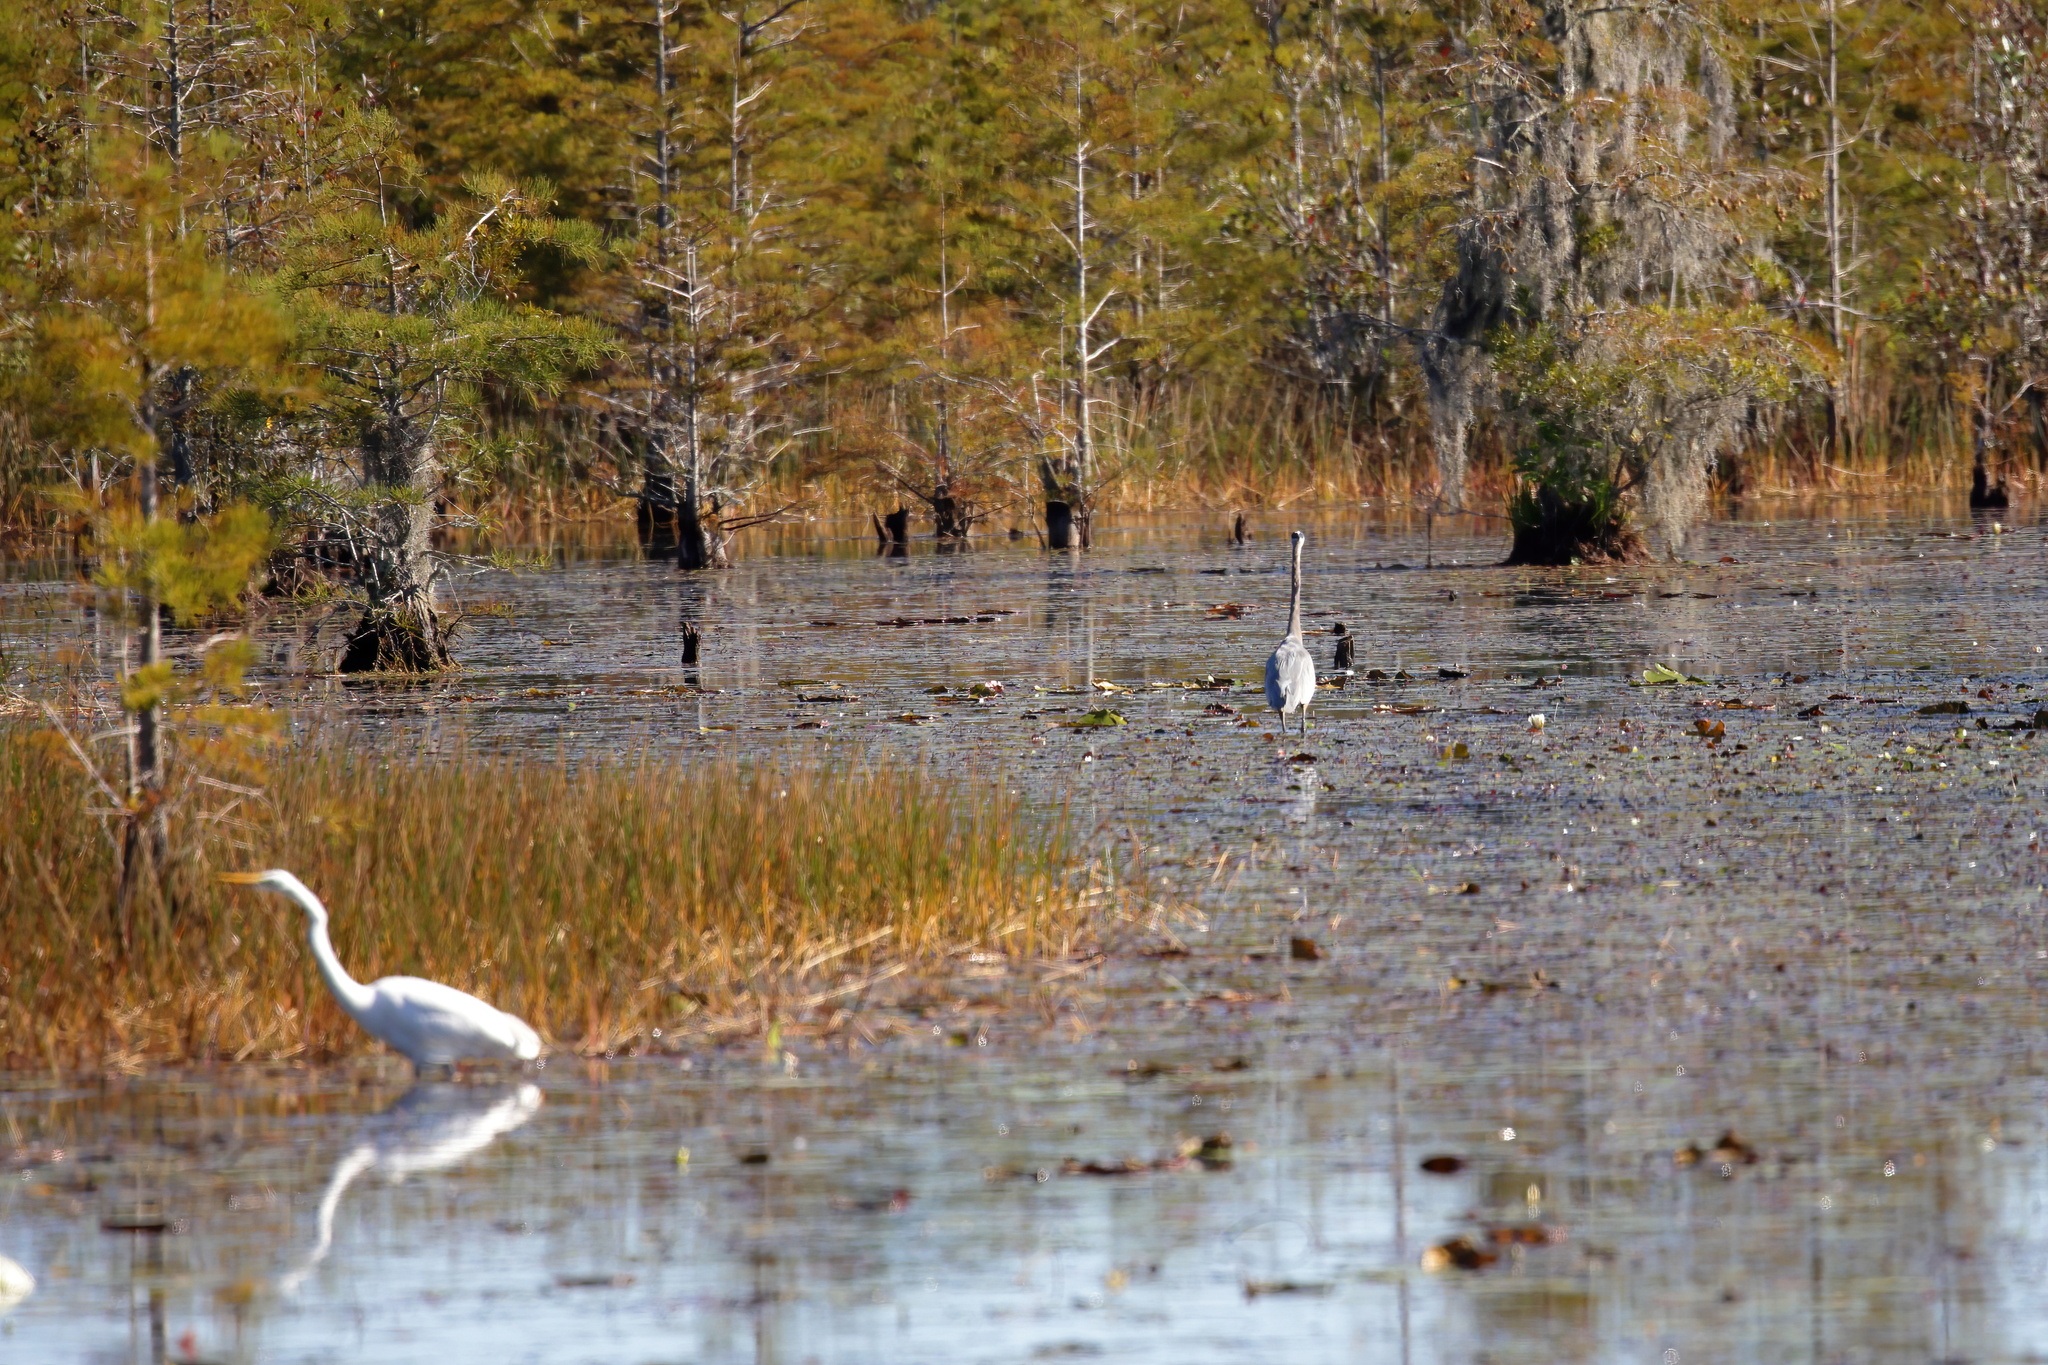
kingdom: Animalia
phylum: Chordata
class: Aves
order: Pelecaniformes
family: Ardeidae
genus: Ardea
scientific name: Ardea herodias
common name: Great blue heron
